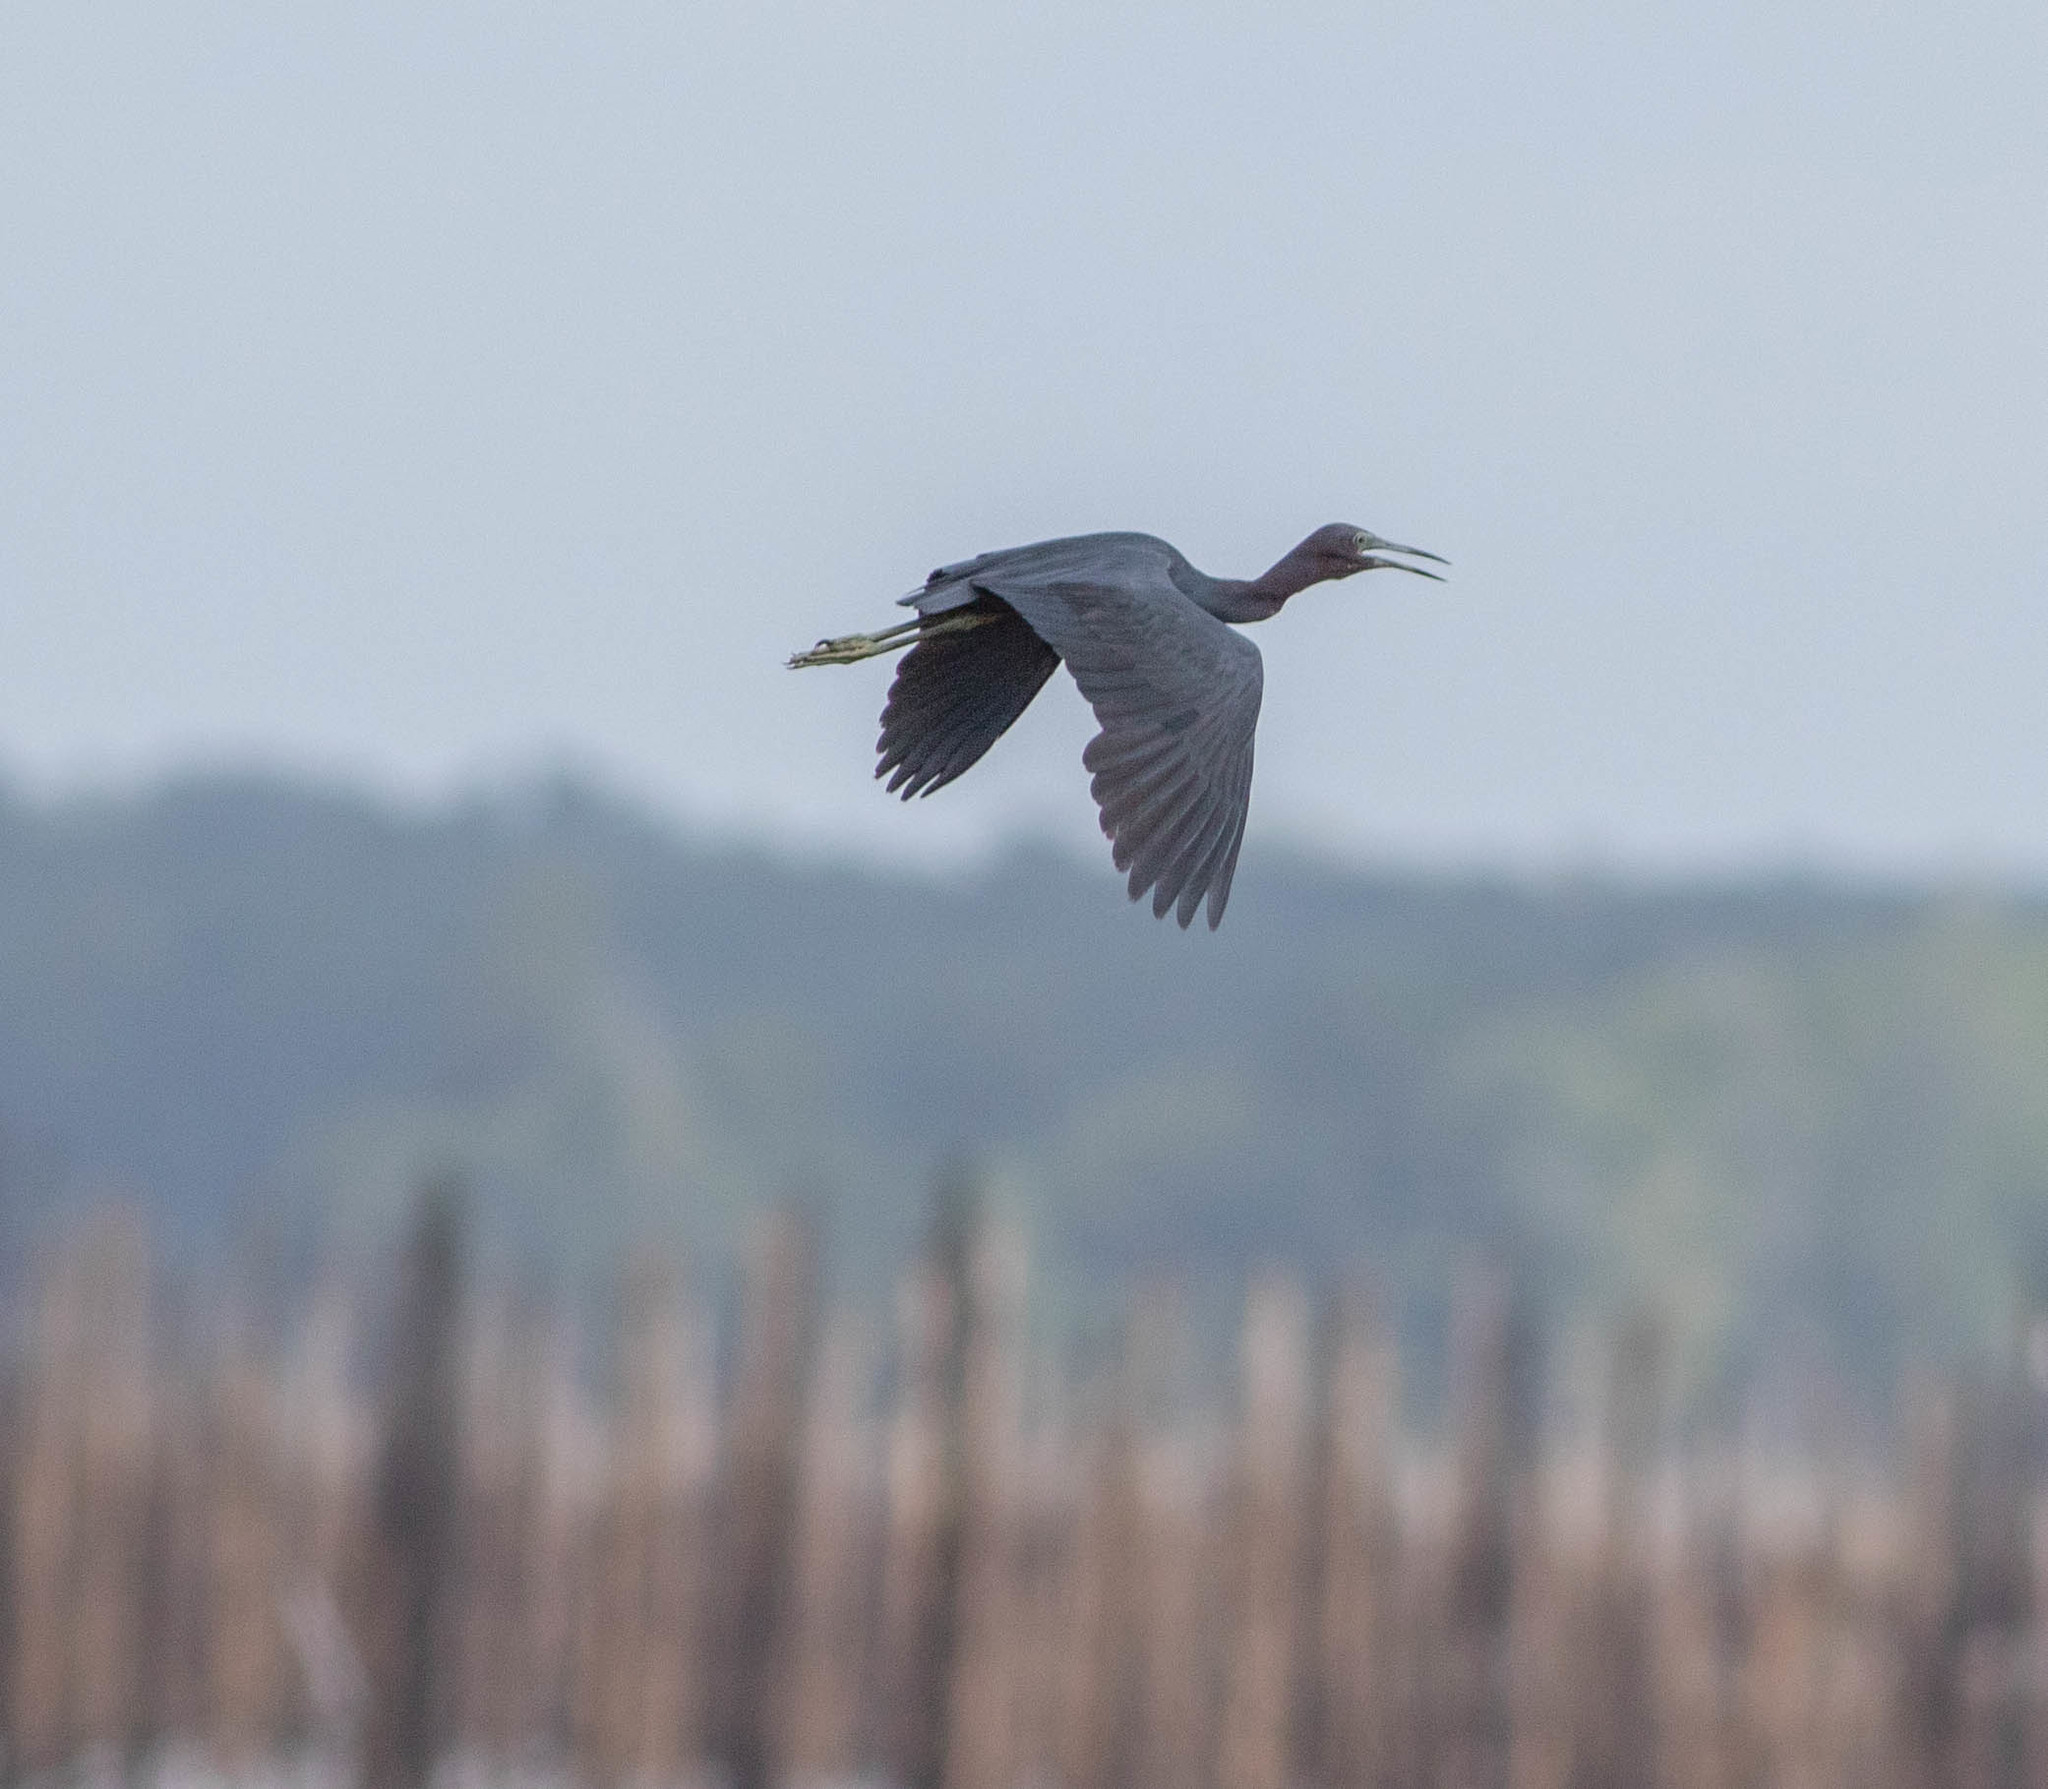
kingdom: Animalia
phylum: Chordata
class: Aves
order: Pelecaniformes
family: Ardeidae
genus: Egretta
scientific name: Egretta caerulea
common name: Little blue heron
